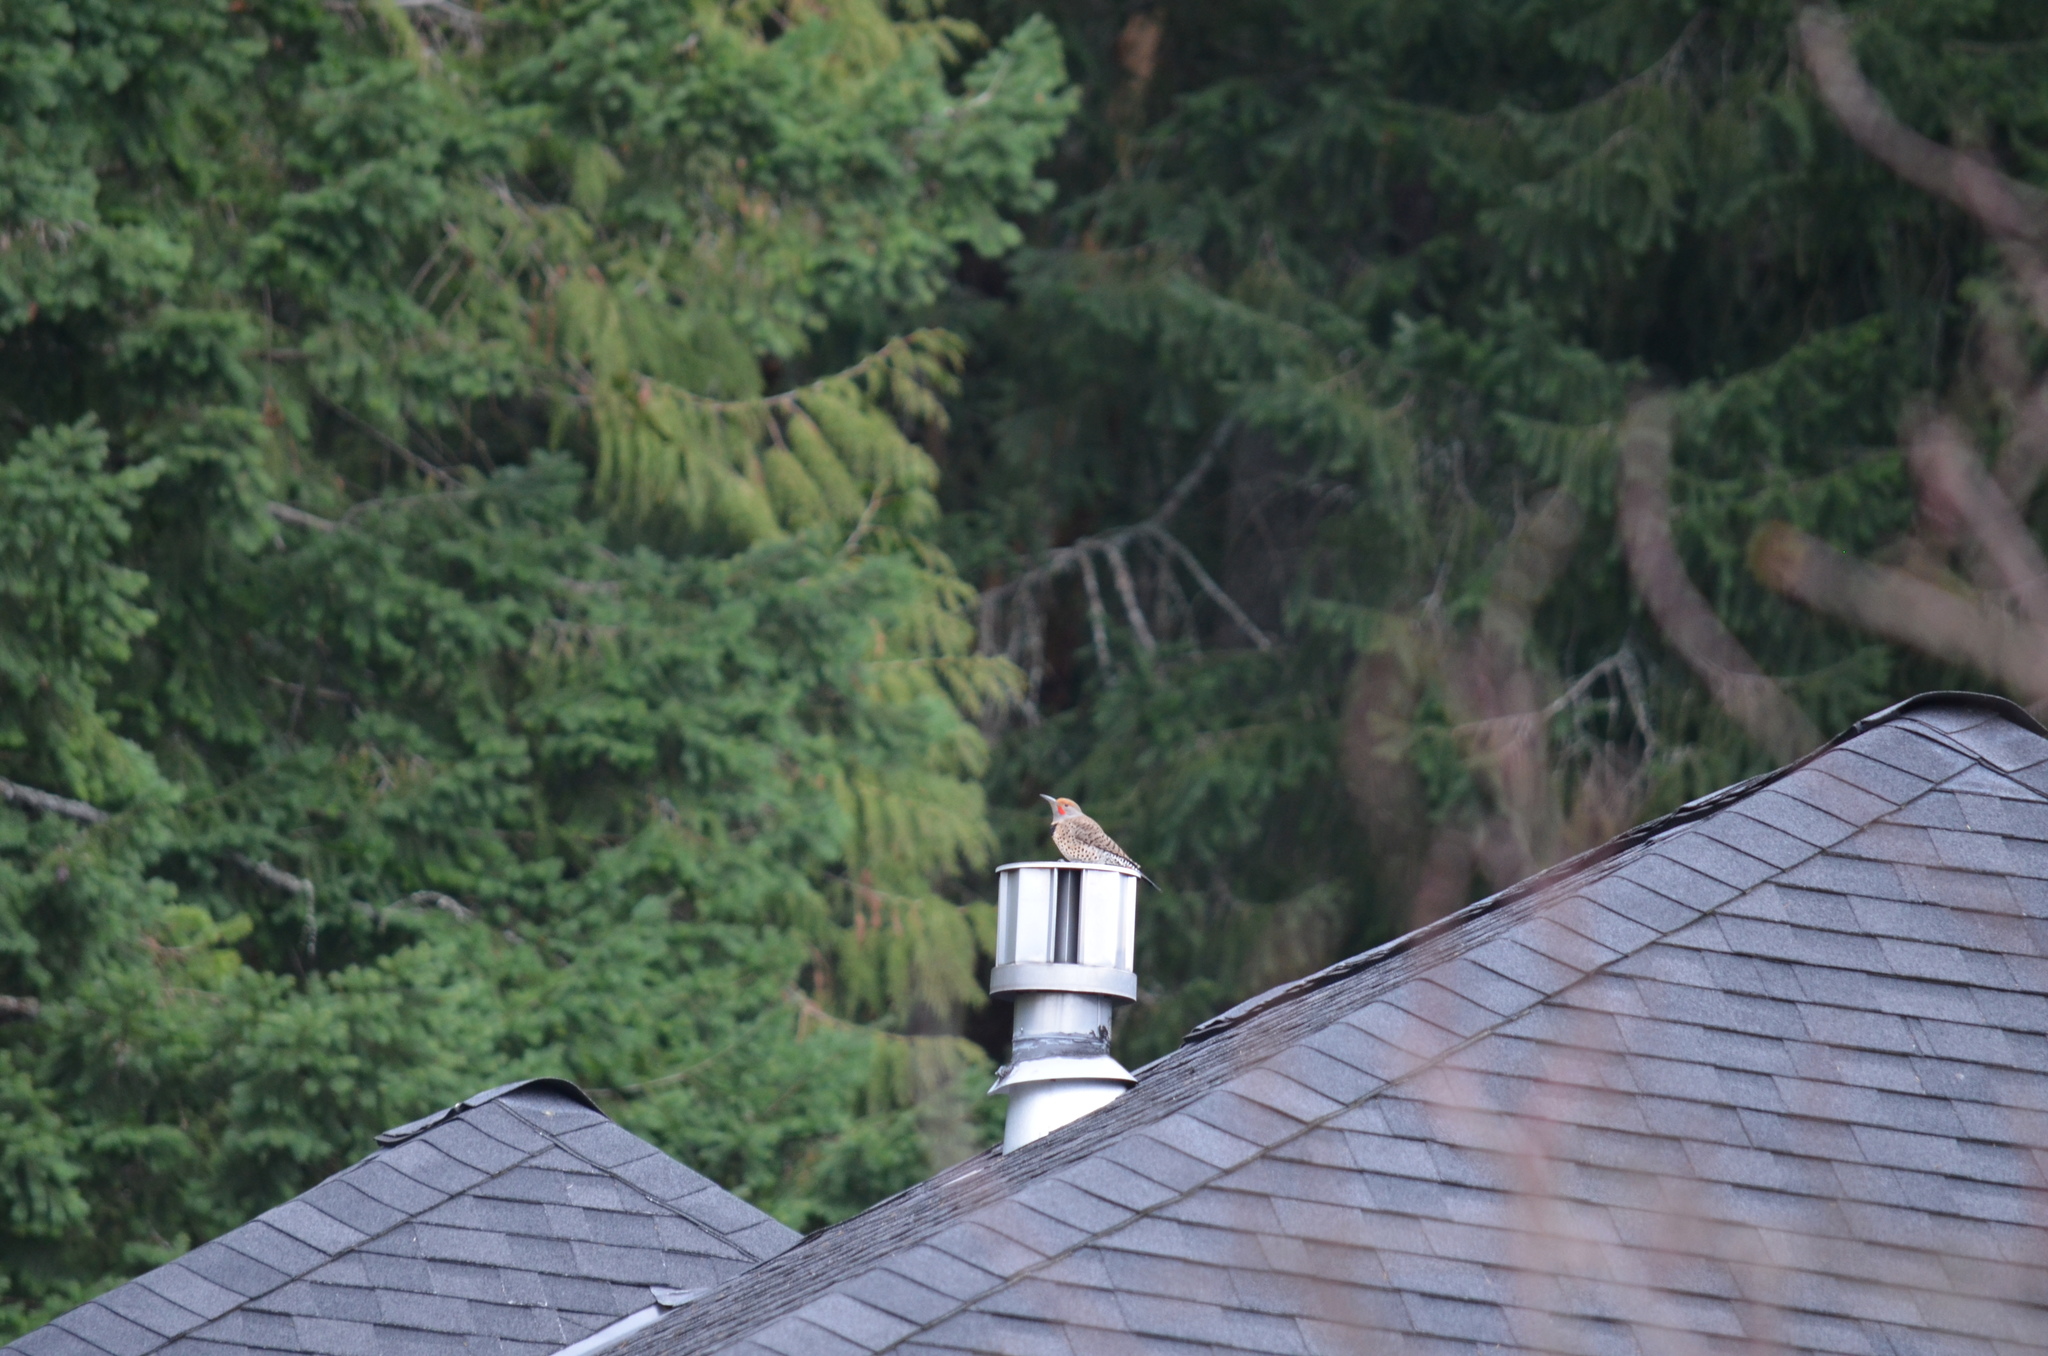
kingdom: Animalia
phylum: Chordata
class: Aves
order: Piciformes
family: Picidae
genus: Colaptes
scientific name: Colaptes auratus
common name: Northern flicker
